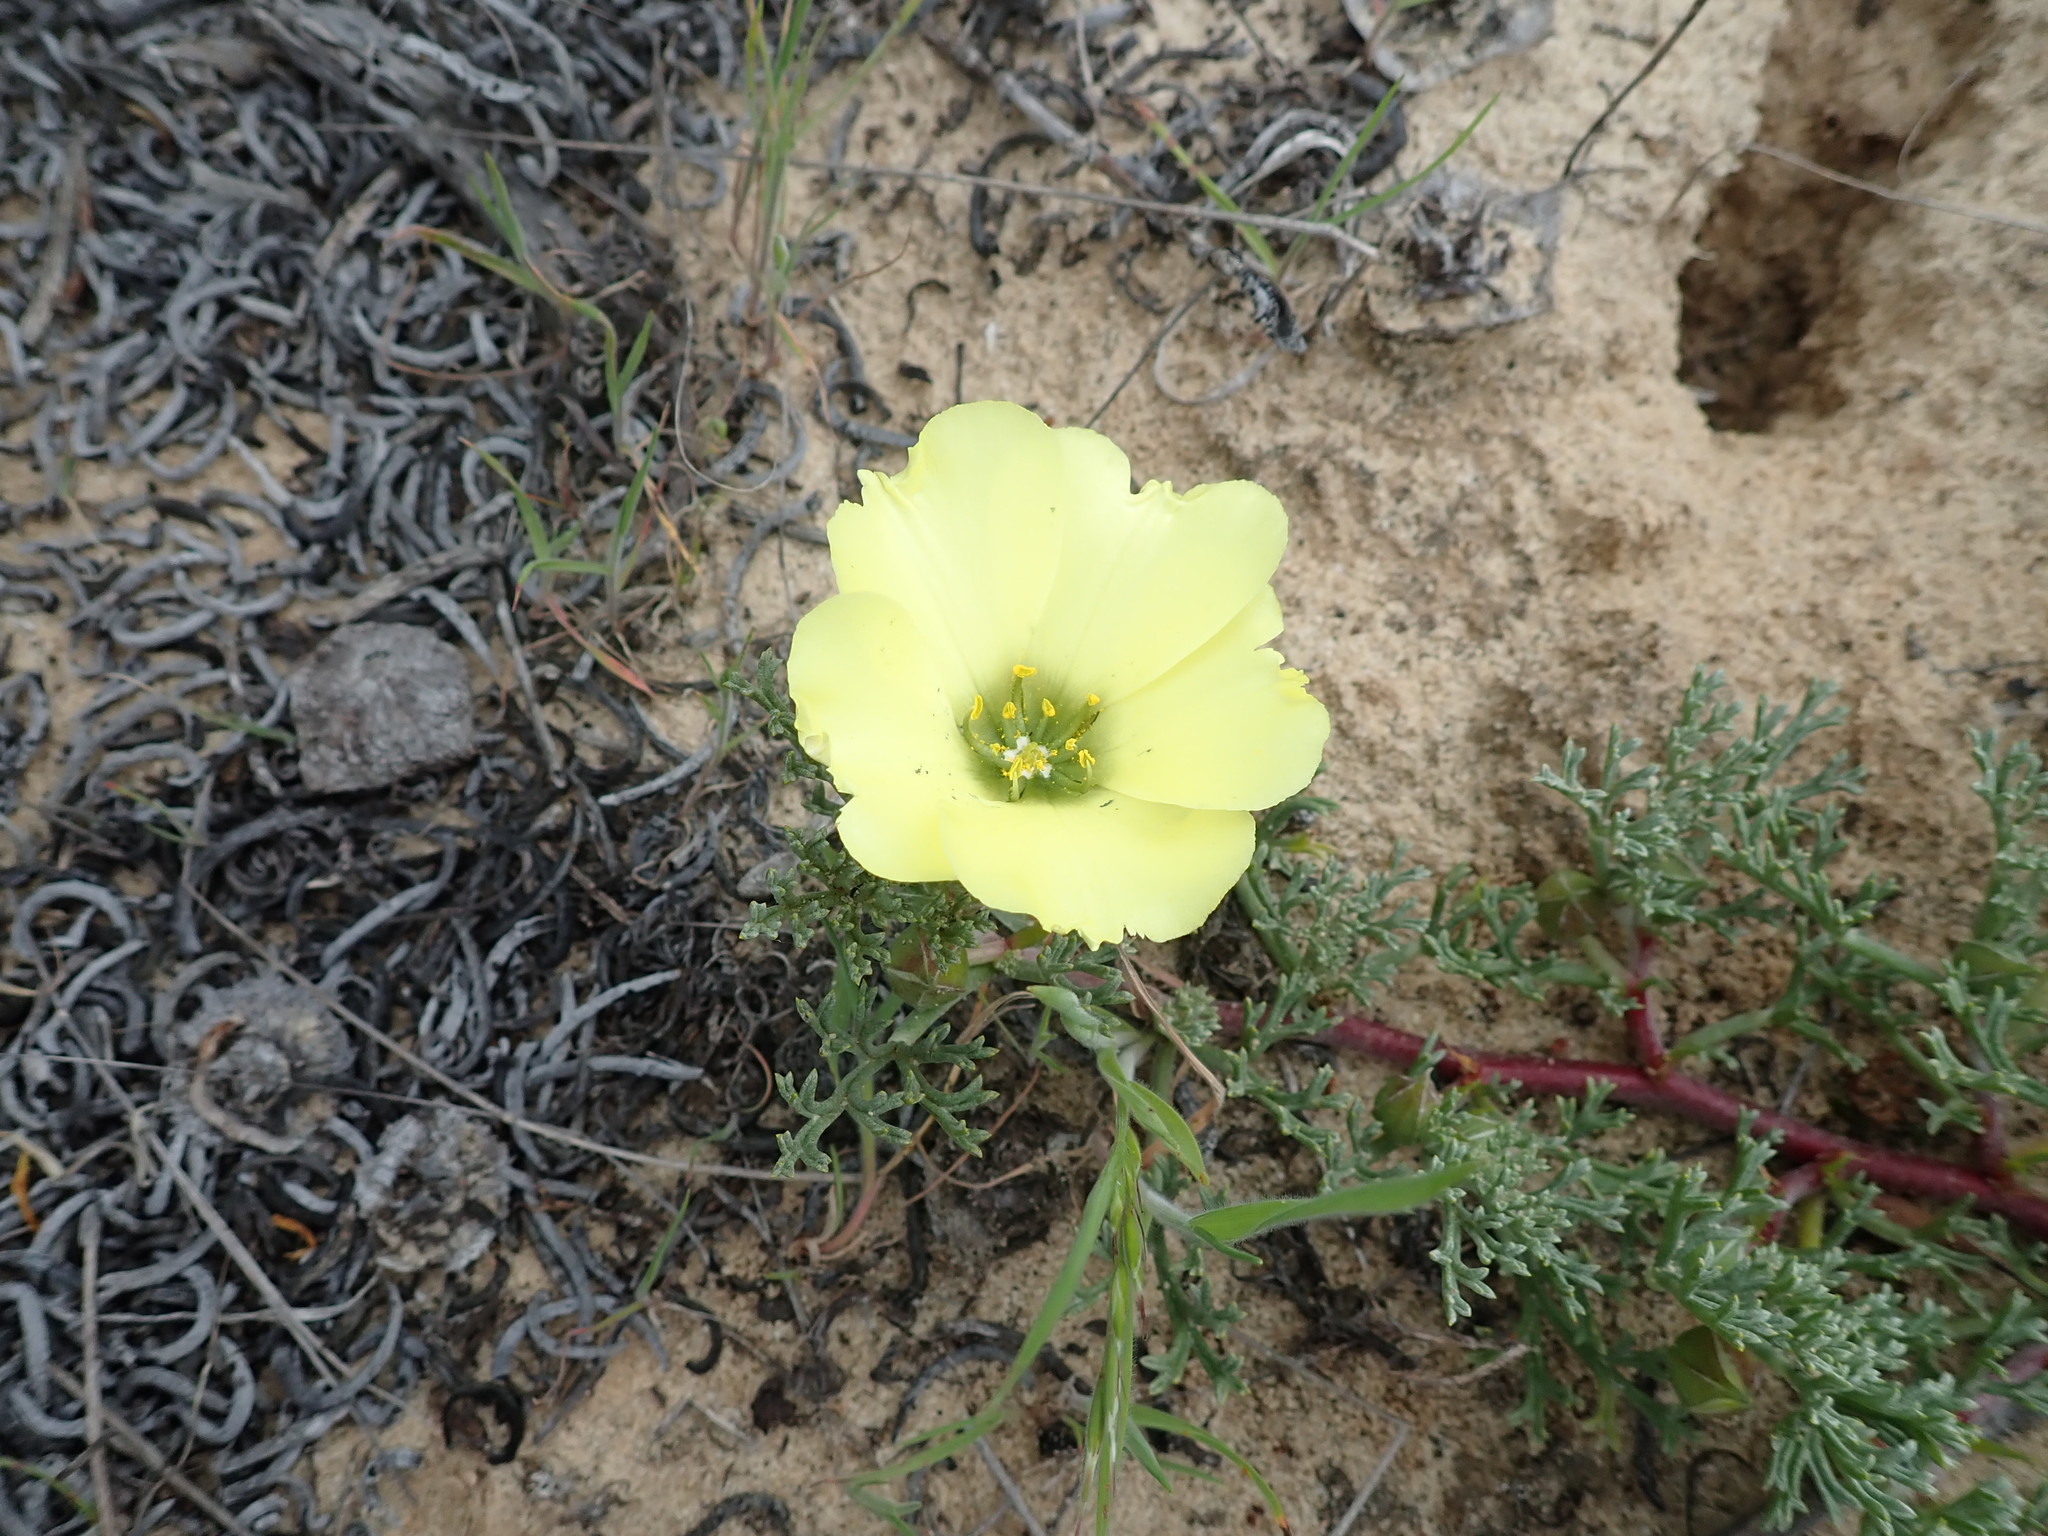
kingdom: Plantae
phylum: Tracheophyta
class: Magnoliopsida
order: Malvales
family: Neuradaceae
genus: Grielum
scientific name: Grielum grandiflorum
